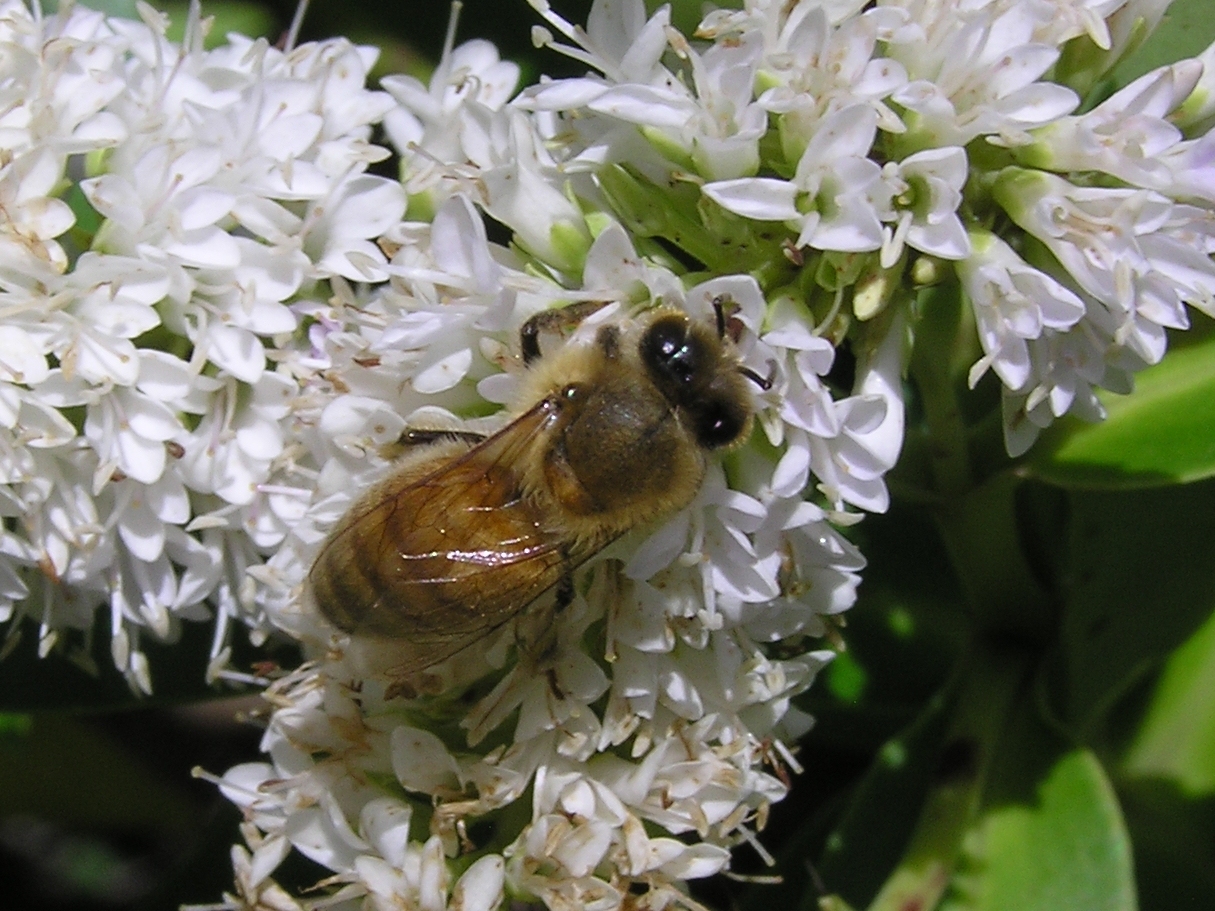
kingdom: Animalia
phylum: Arthropoda
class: Insecta
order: Hymenoptera
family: Apidae
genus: Apis
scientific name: Apis mellifera
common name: Honey bee
